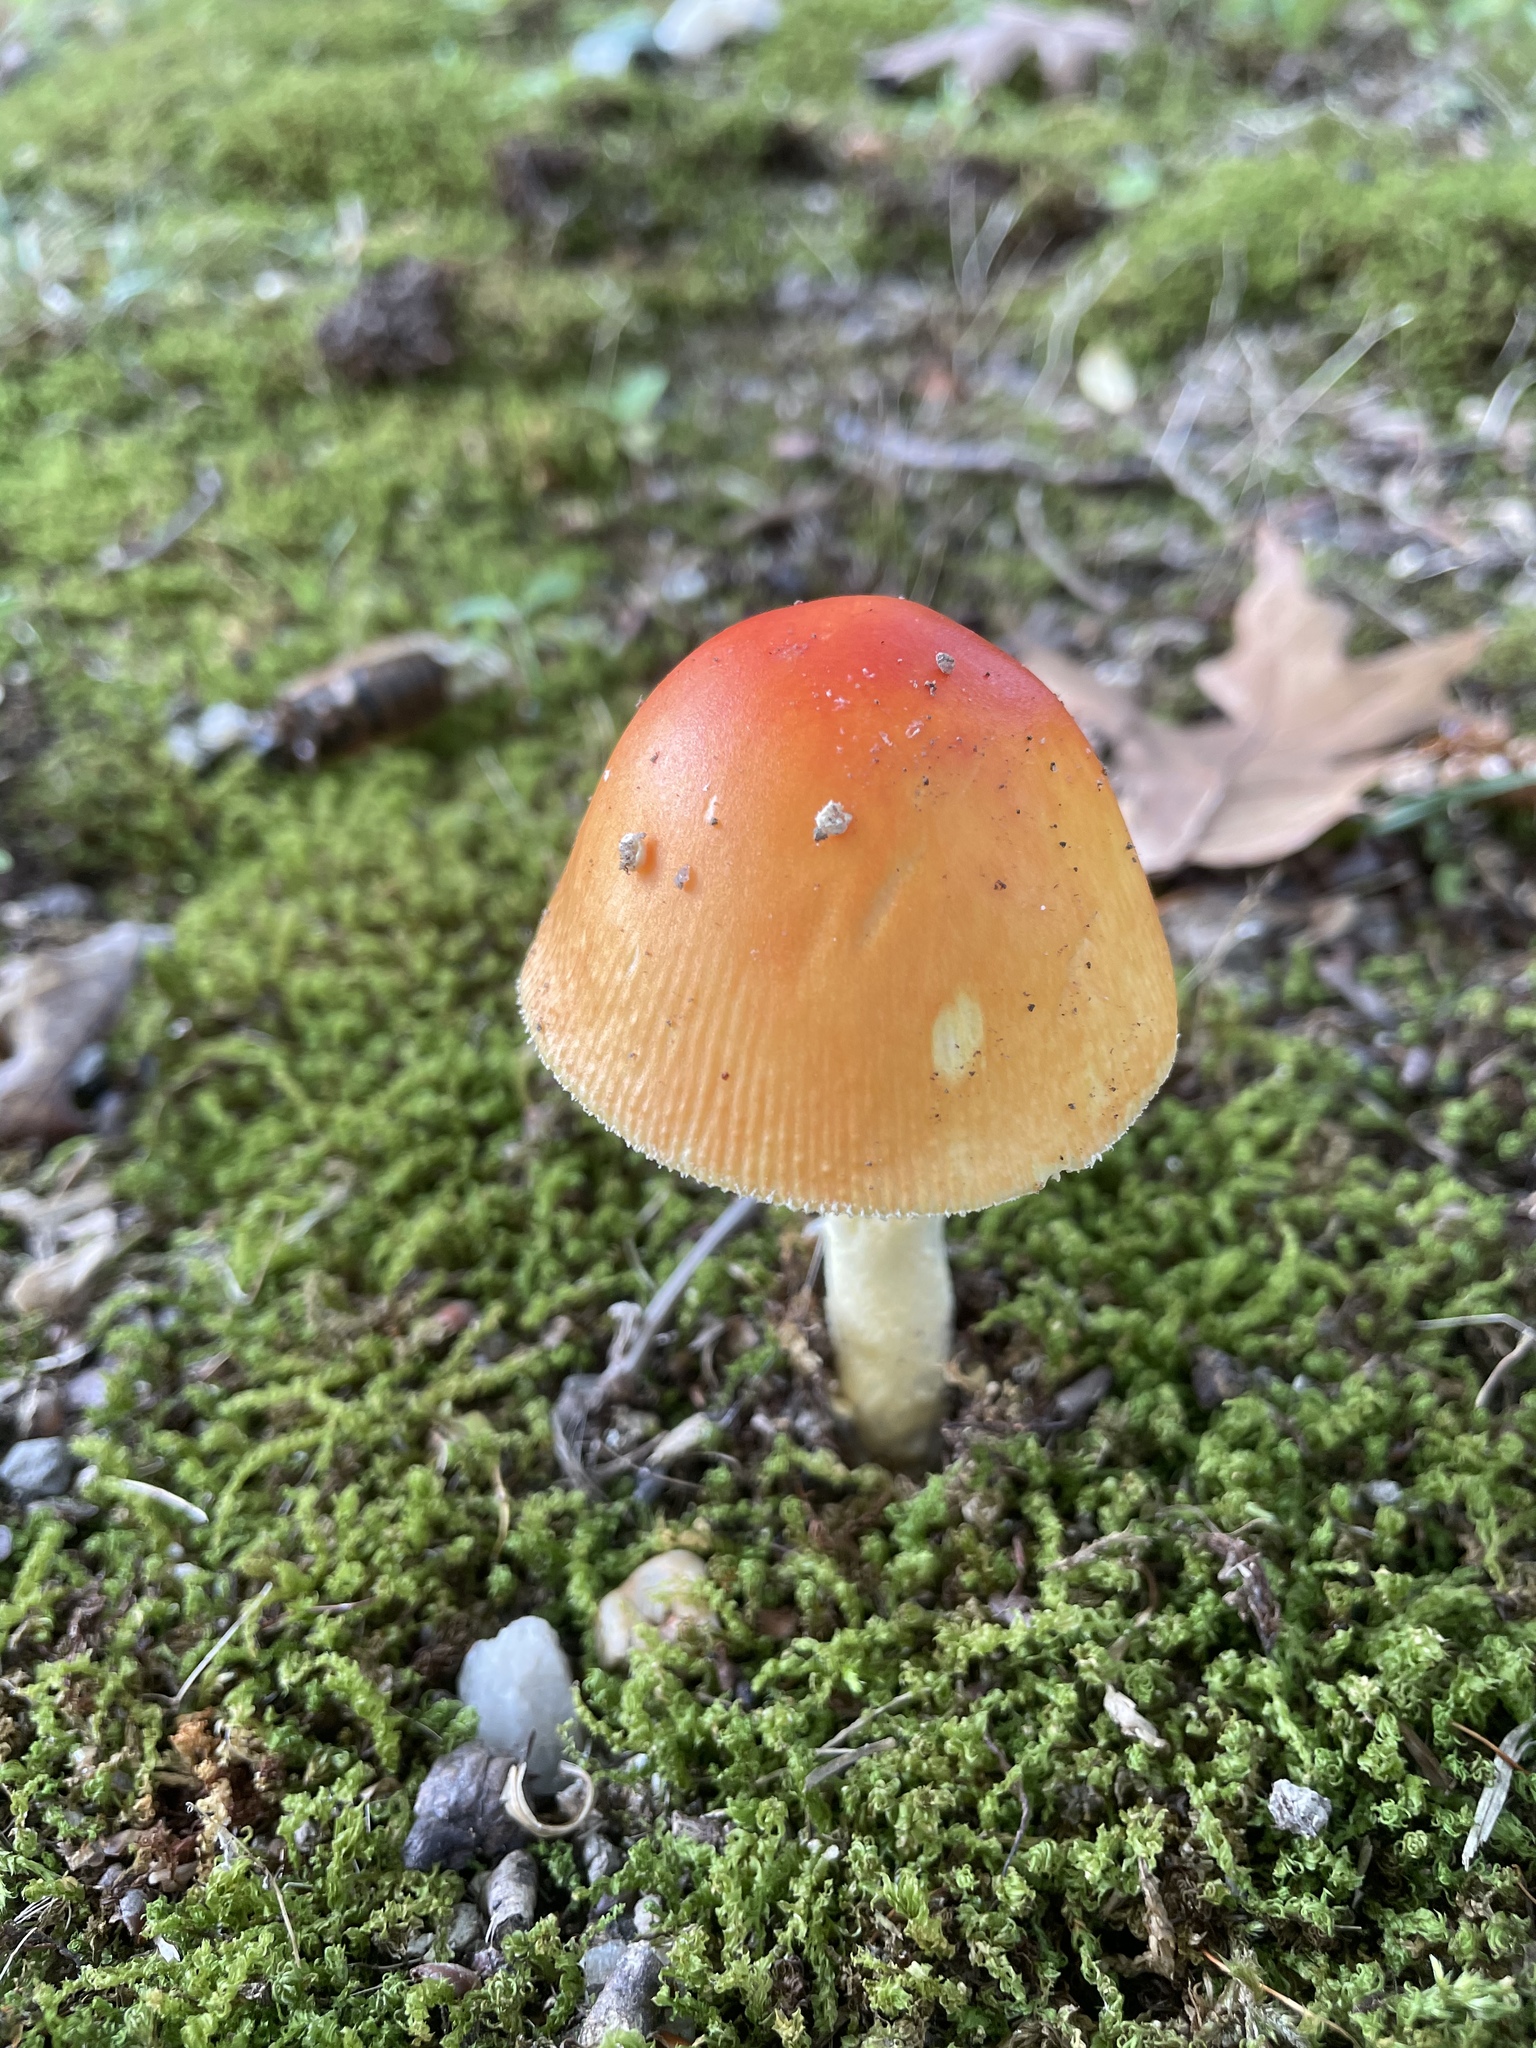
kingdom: Fungi
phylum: Basidiomycota
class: Agaricomycetes
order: Agaricales
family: Amanitaceae
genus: Amanita
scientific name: Amanita parcivolvata
